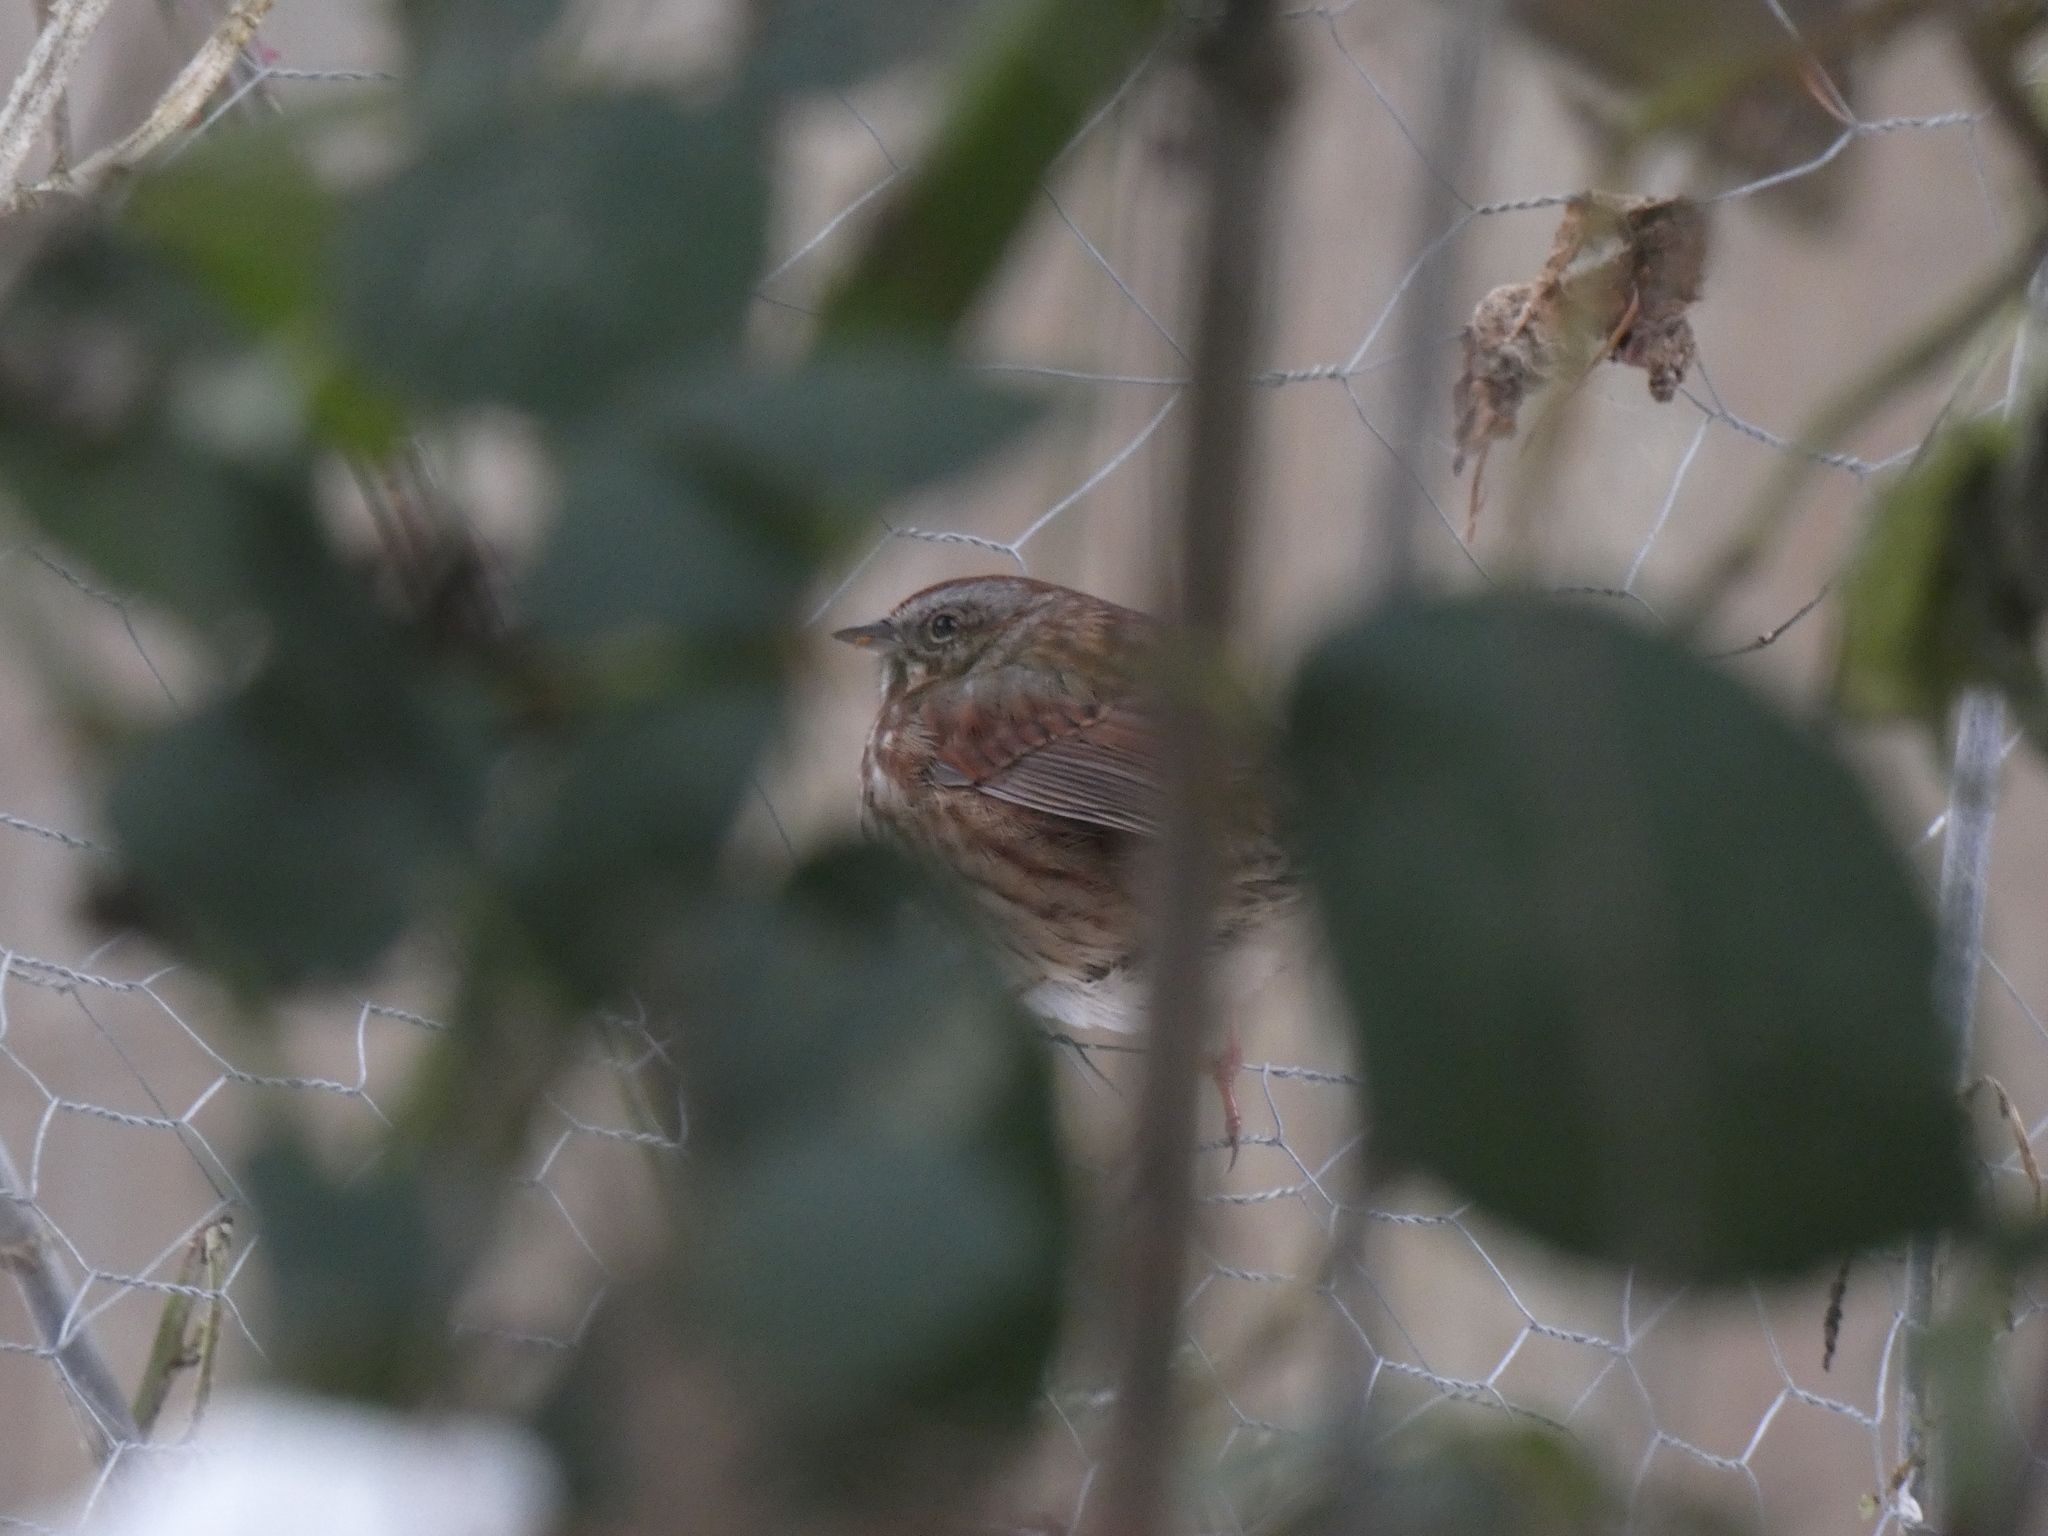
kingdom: Animalia
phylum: Chordata
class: Aves
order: Passeriformes
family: Passerellidae
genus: Melospiza
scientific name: Melospiza melodia
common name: Song sparrow
